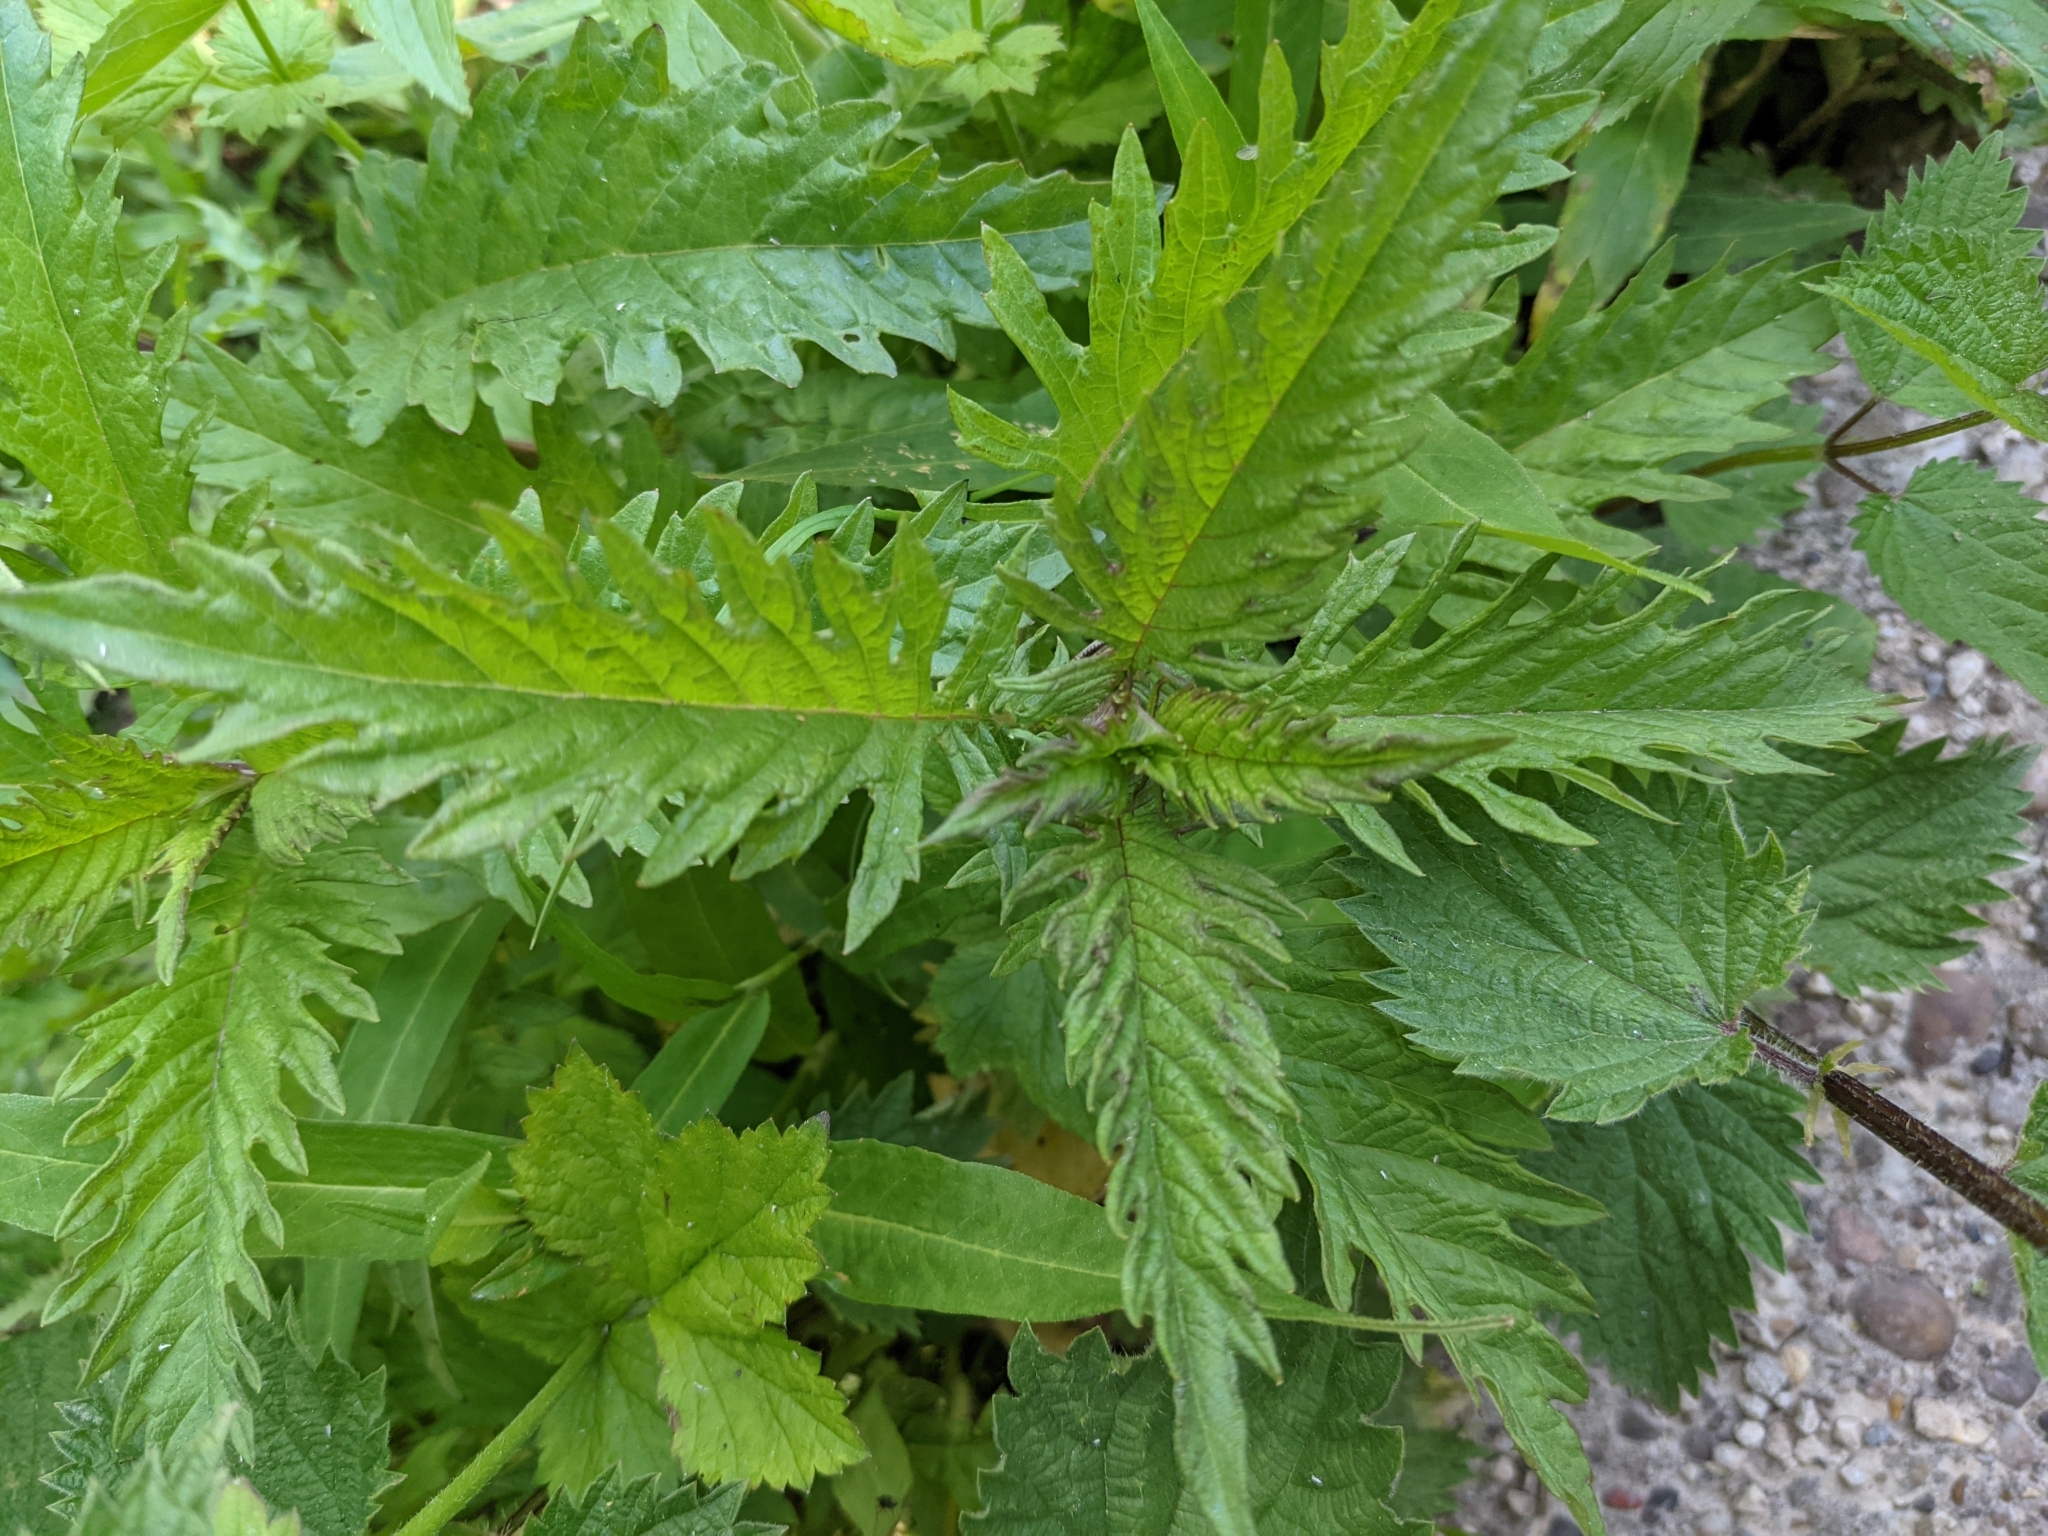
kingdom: Plantae
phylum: Tracheophyta
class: Magnoliopsida
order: Lamiales
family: Lamiaceae
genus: Lycopus
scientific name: Lycopus europaeus
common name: European bugleweed
